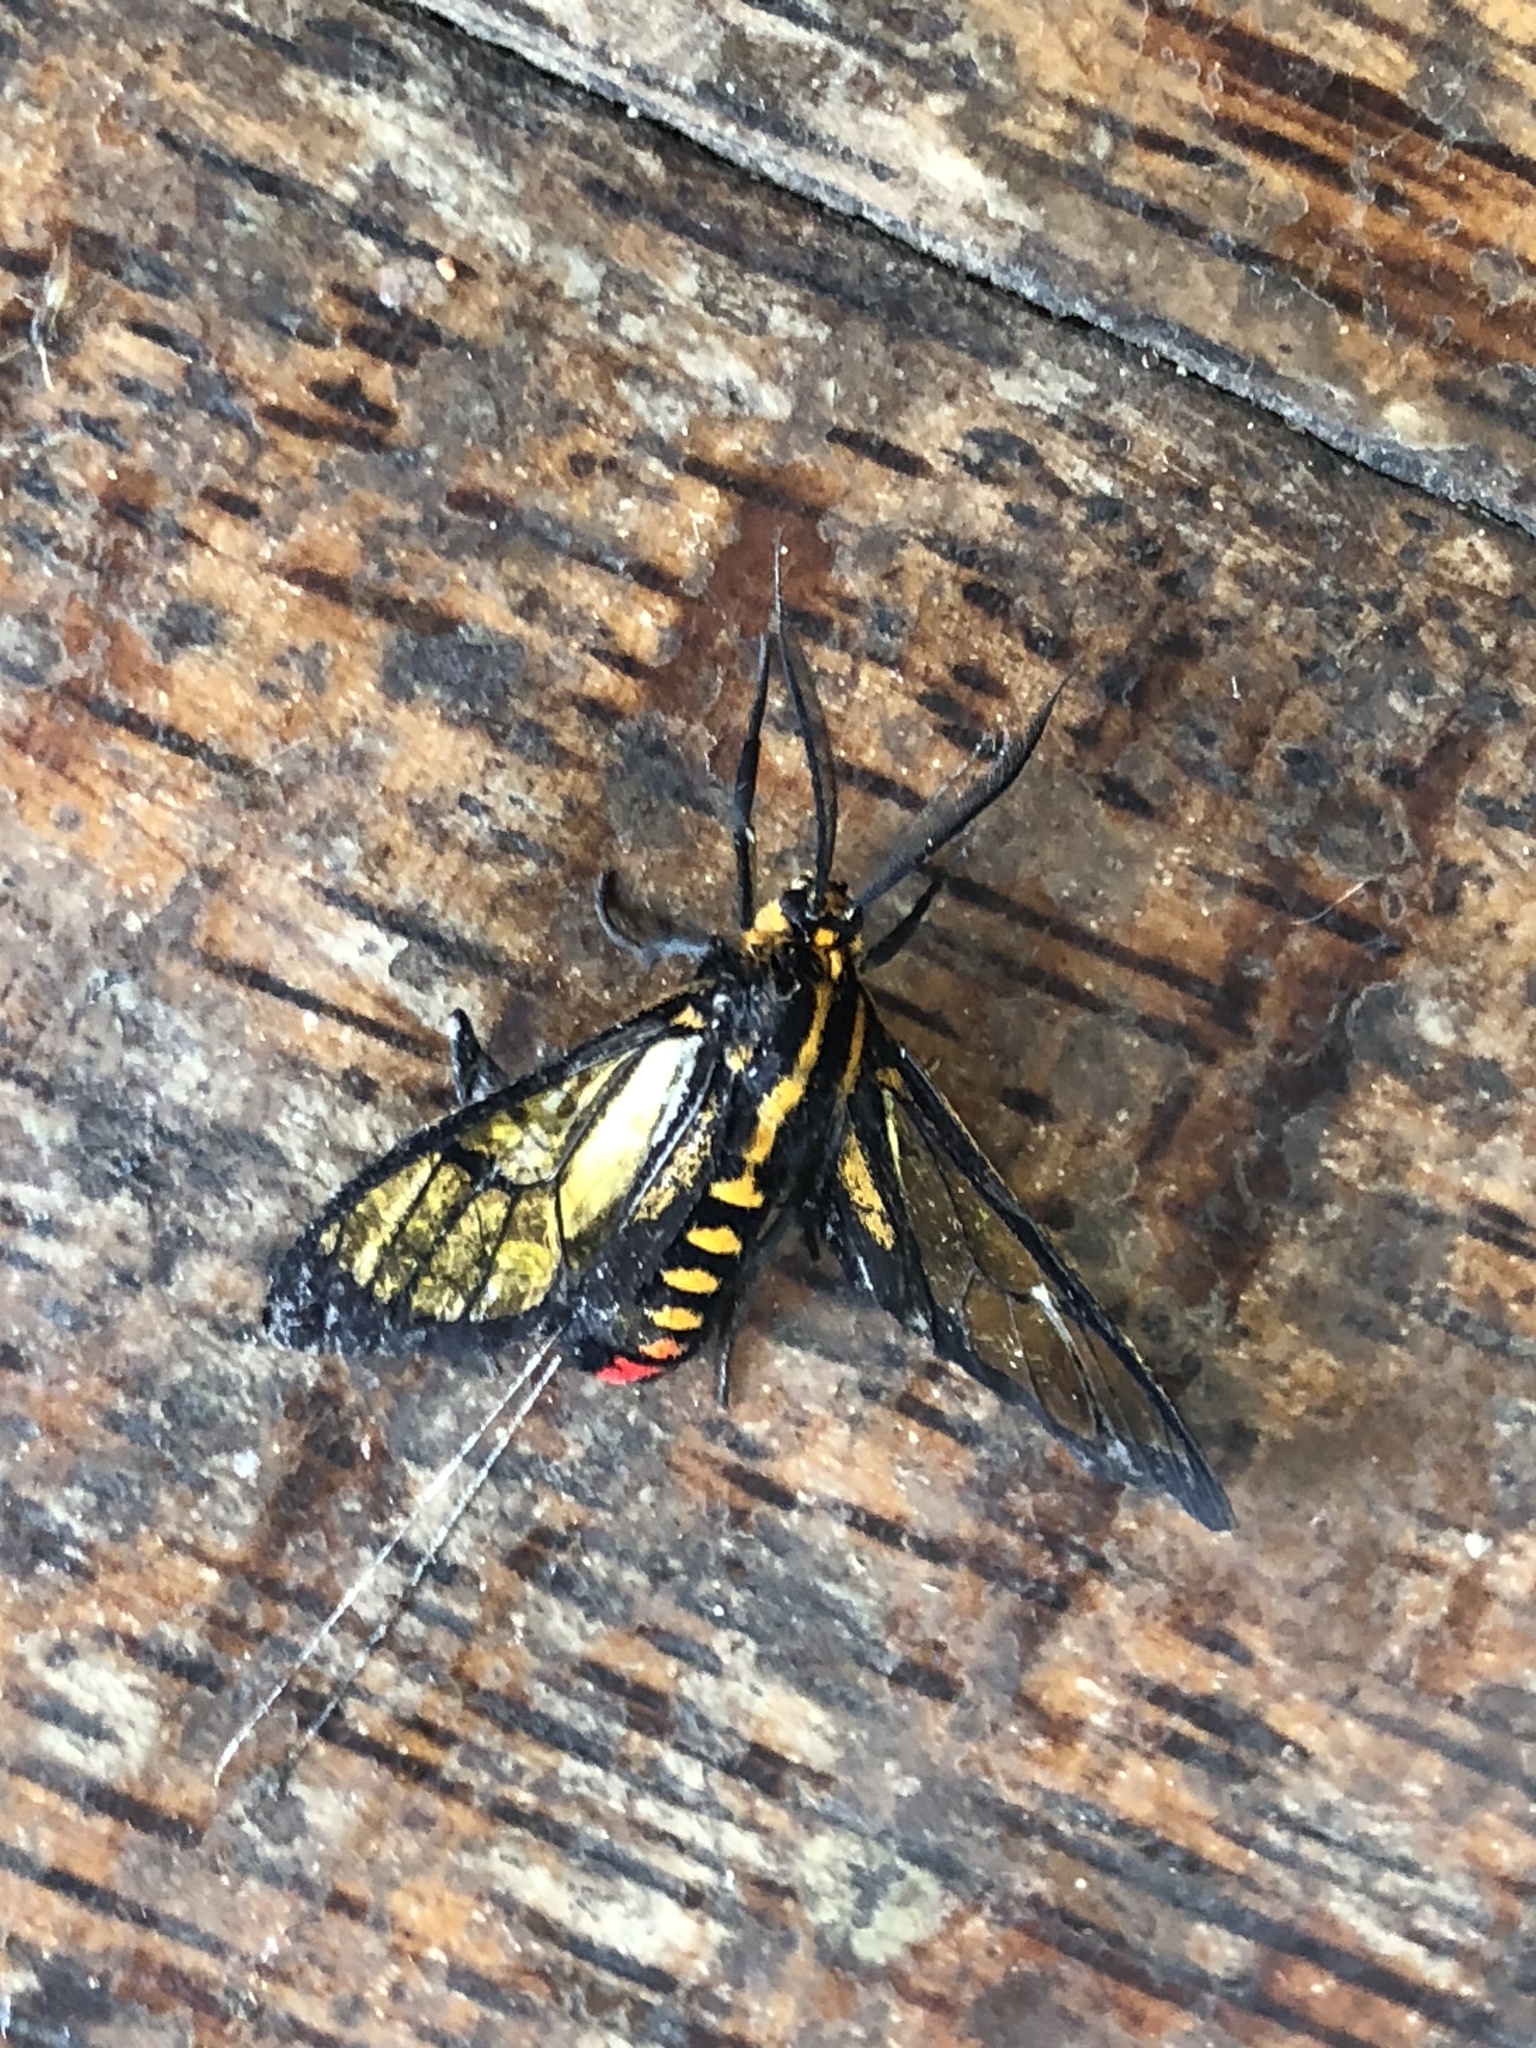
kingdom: Animalia
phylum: Arthropoda
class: Insecta
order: Lepidoptera
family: Erebidae
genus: Paraethria
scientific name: Paraethria flavosignata
